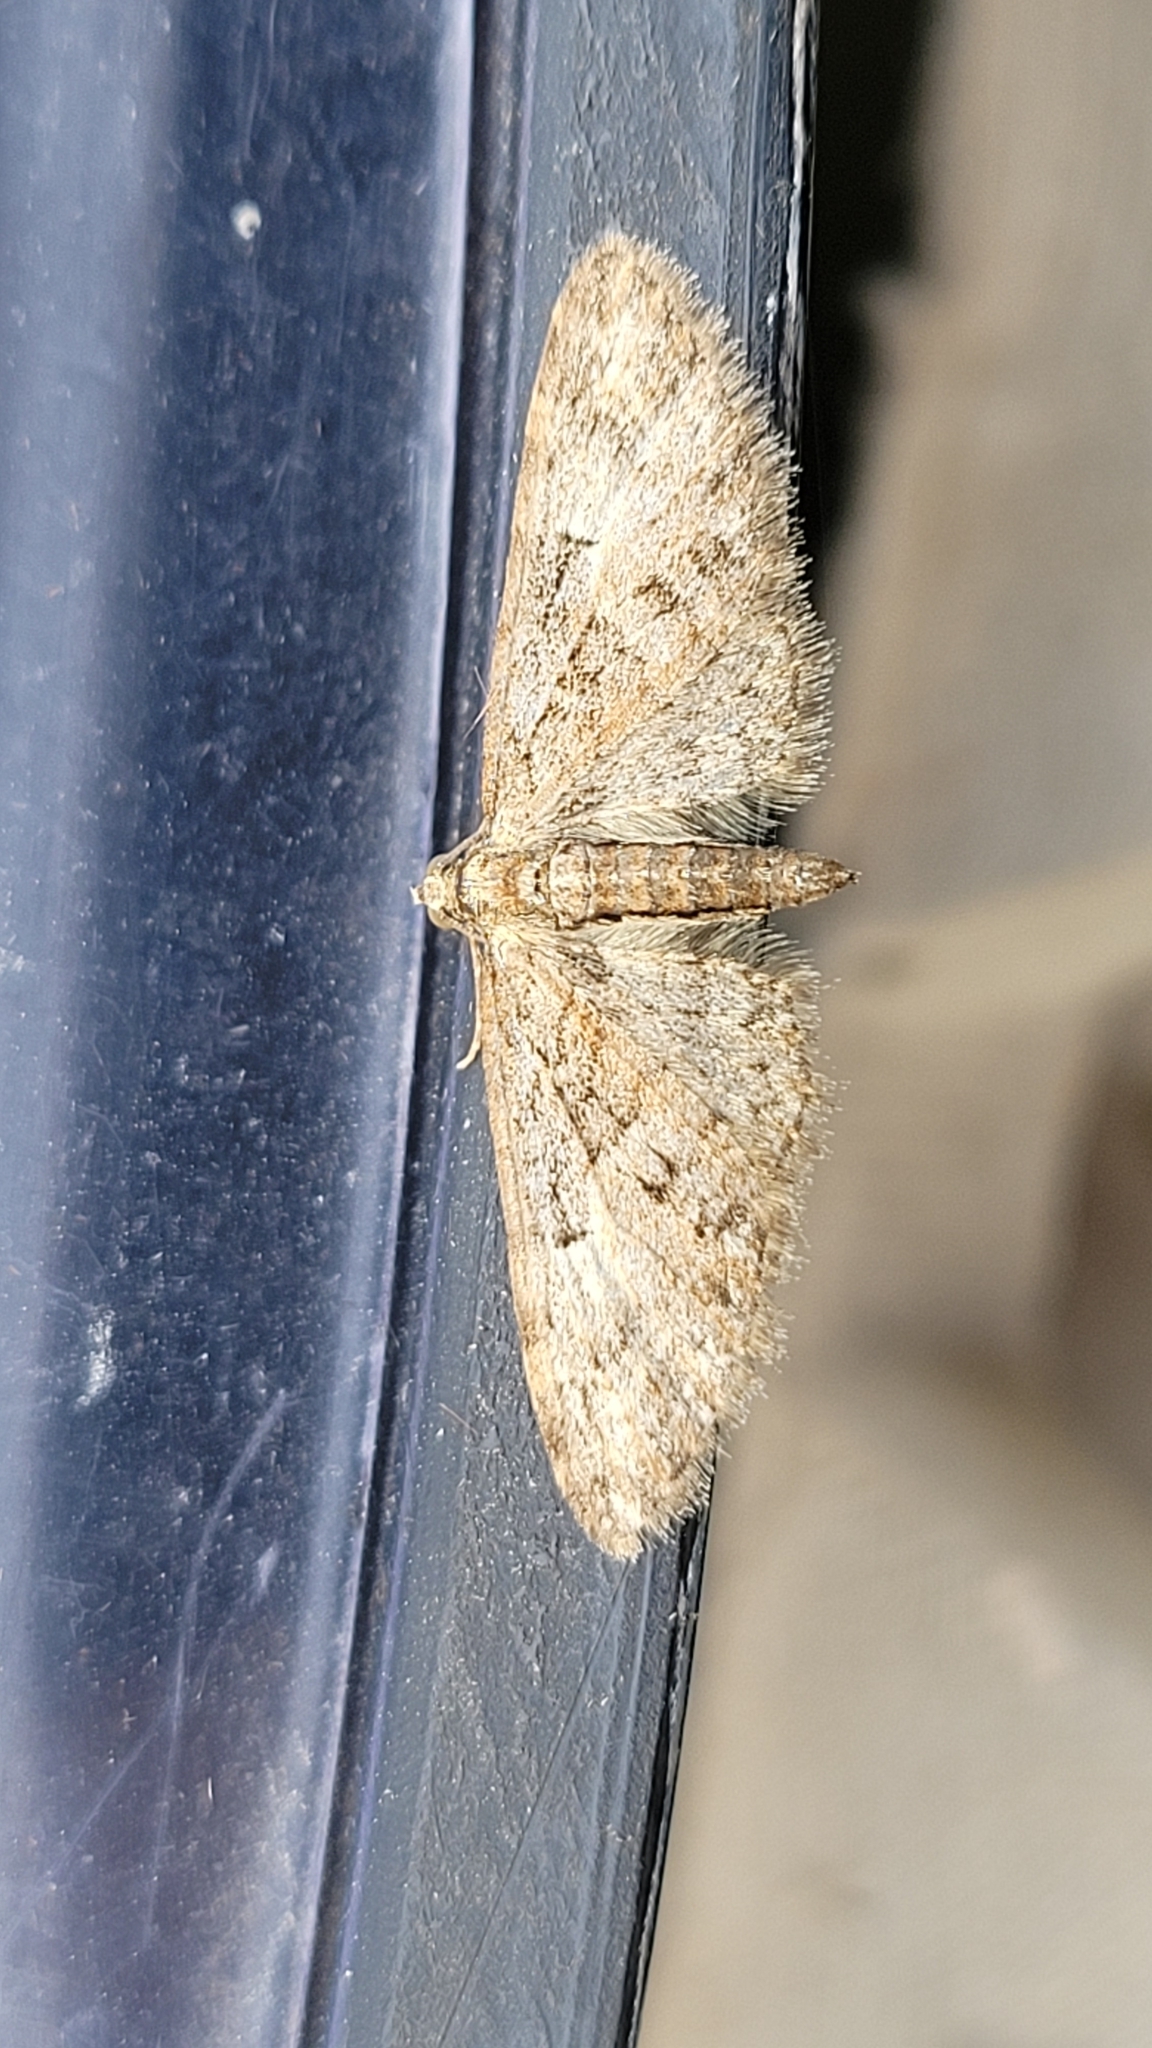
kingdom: Animalia
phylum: Arthropoda
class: Insecta
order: Lepidoptera
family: Geometridae
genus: Eupithecia
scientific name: Eupithecia abbreviata
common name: Brindled pug
